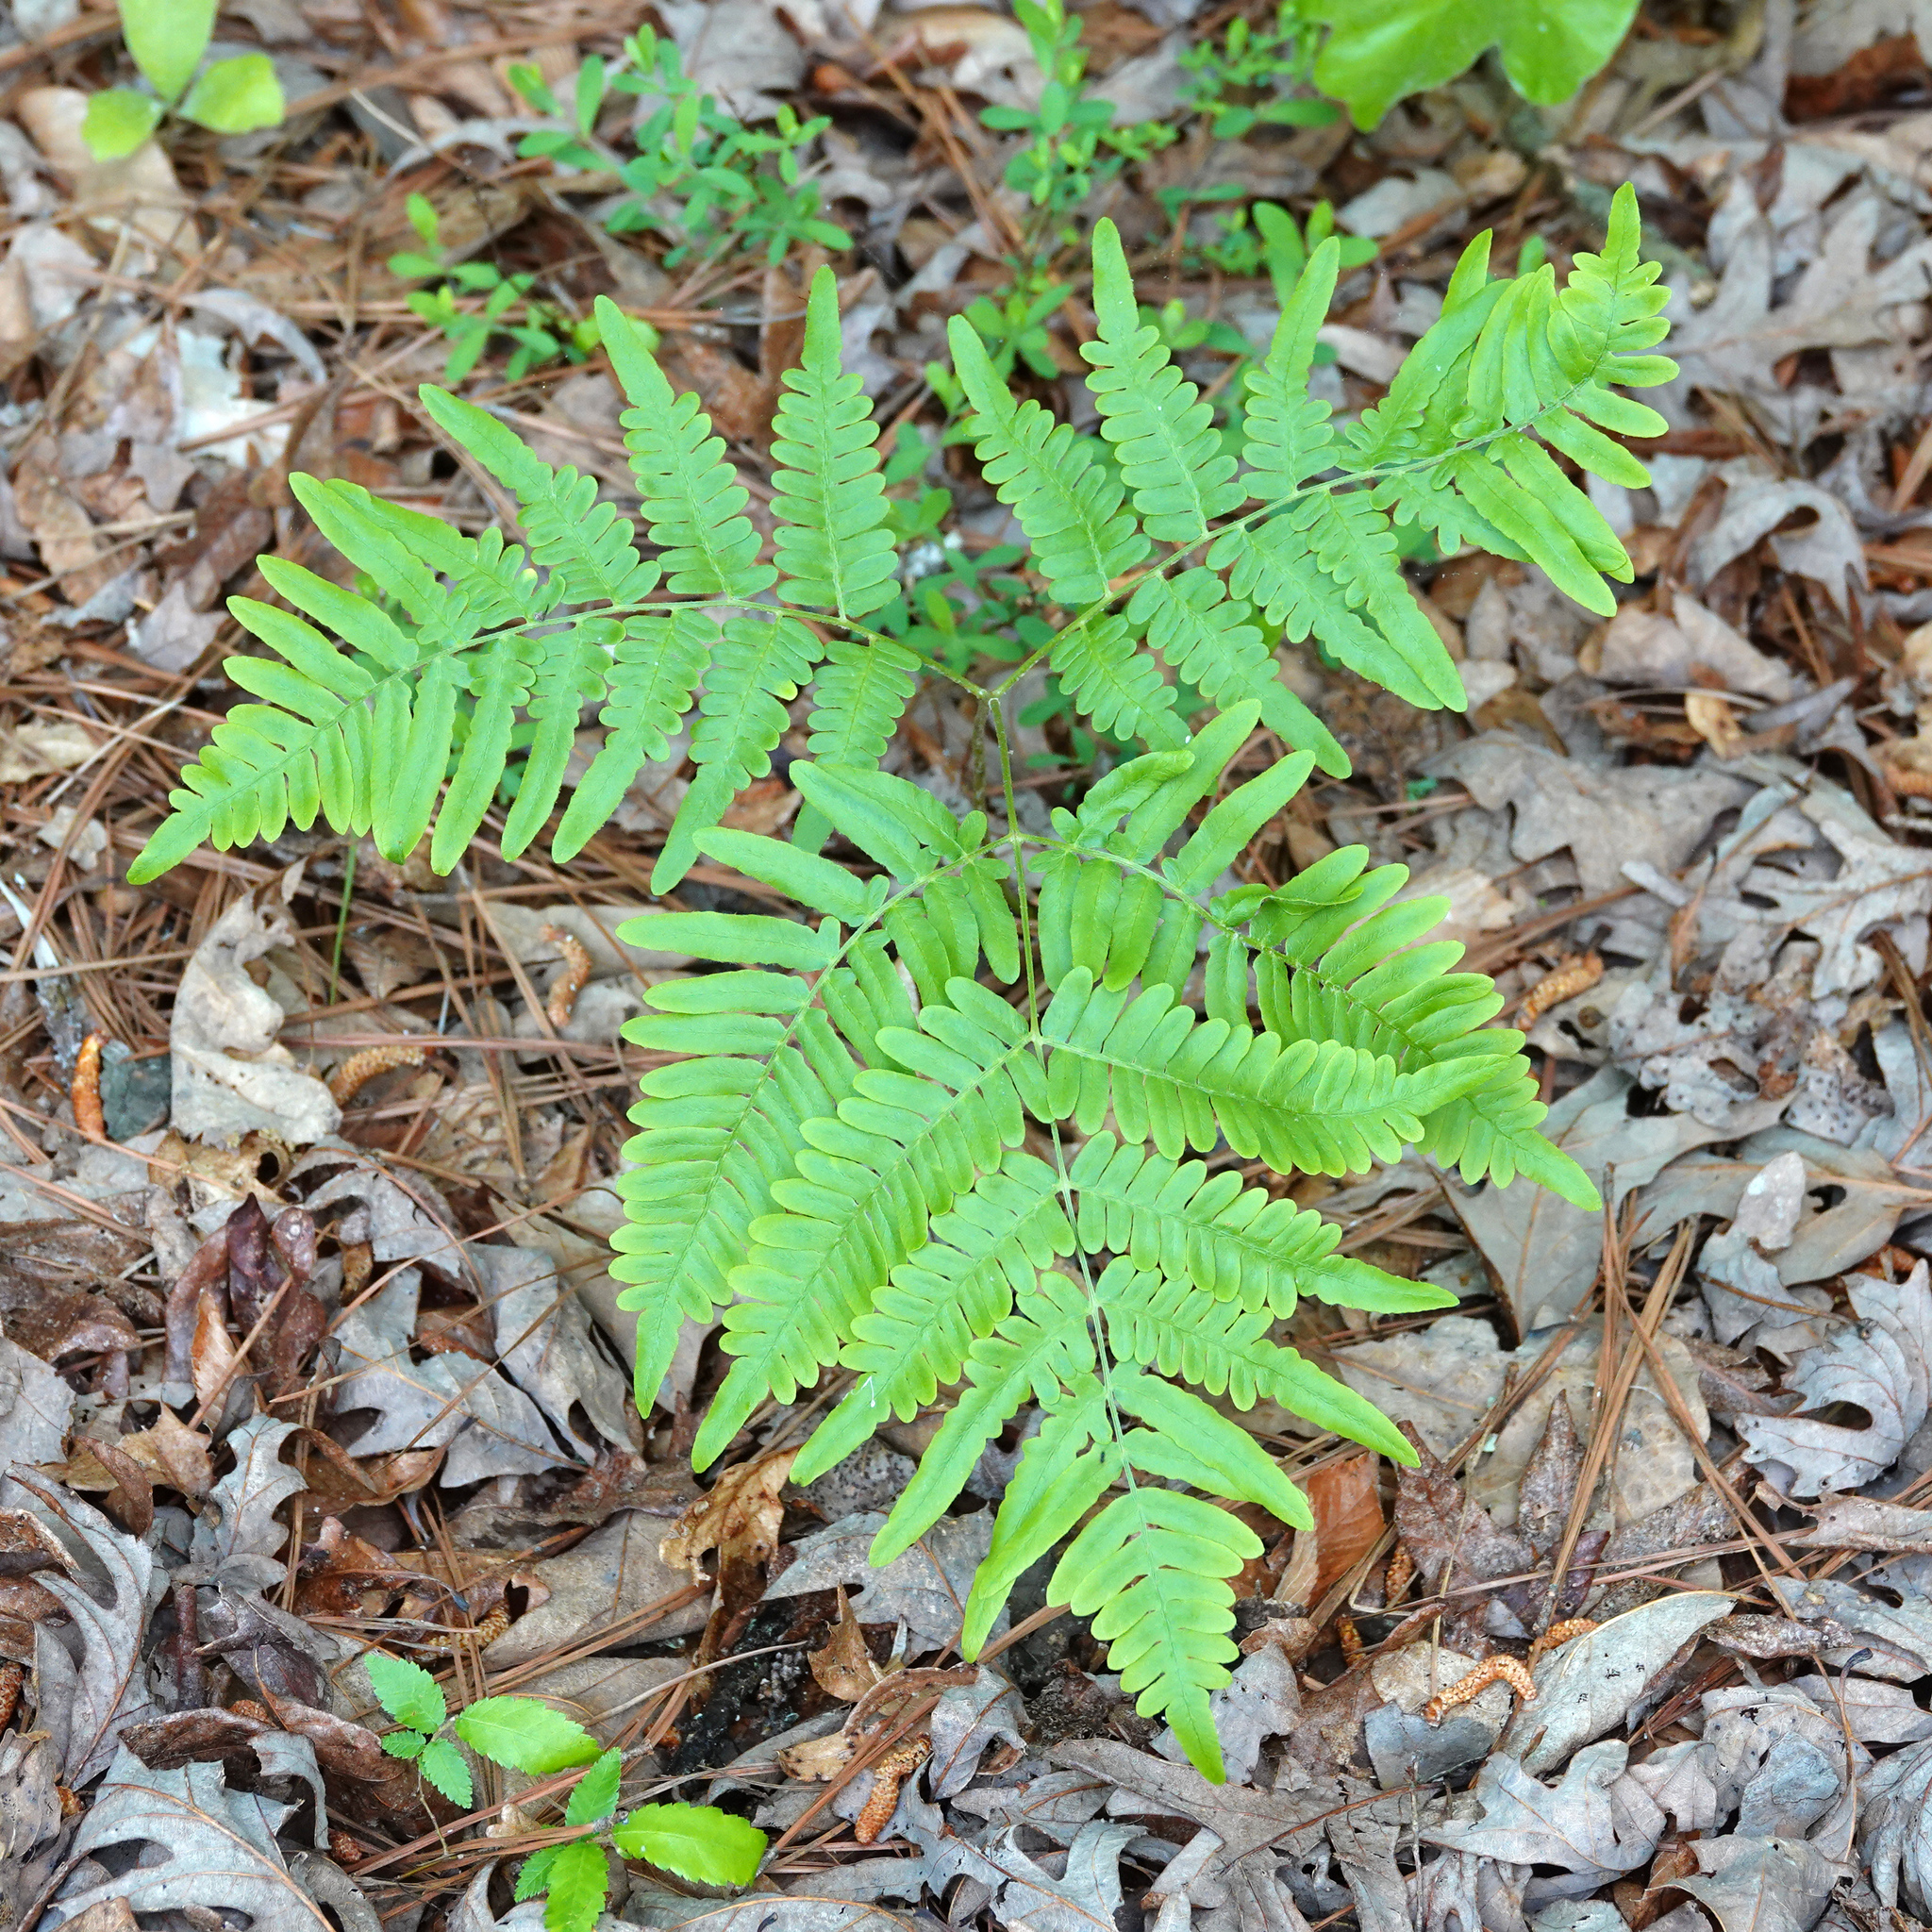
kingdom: Plantae
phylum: Tracheophyta
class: Polypodiopsida
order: Polypodiales
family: Dennstaedtiaceae
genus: Pteridium
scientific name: Pteridium aquilinum
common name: Bracken
